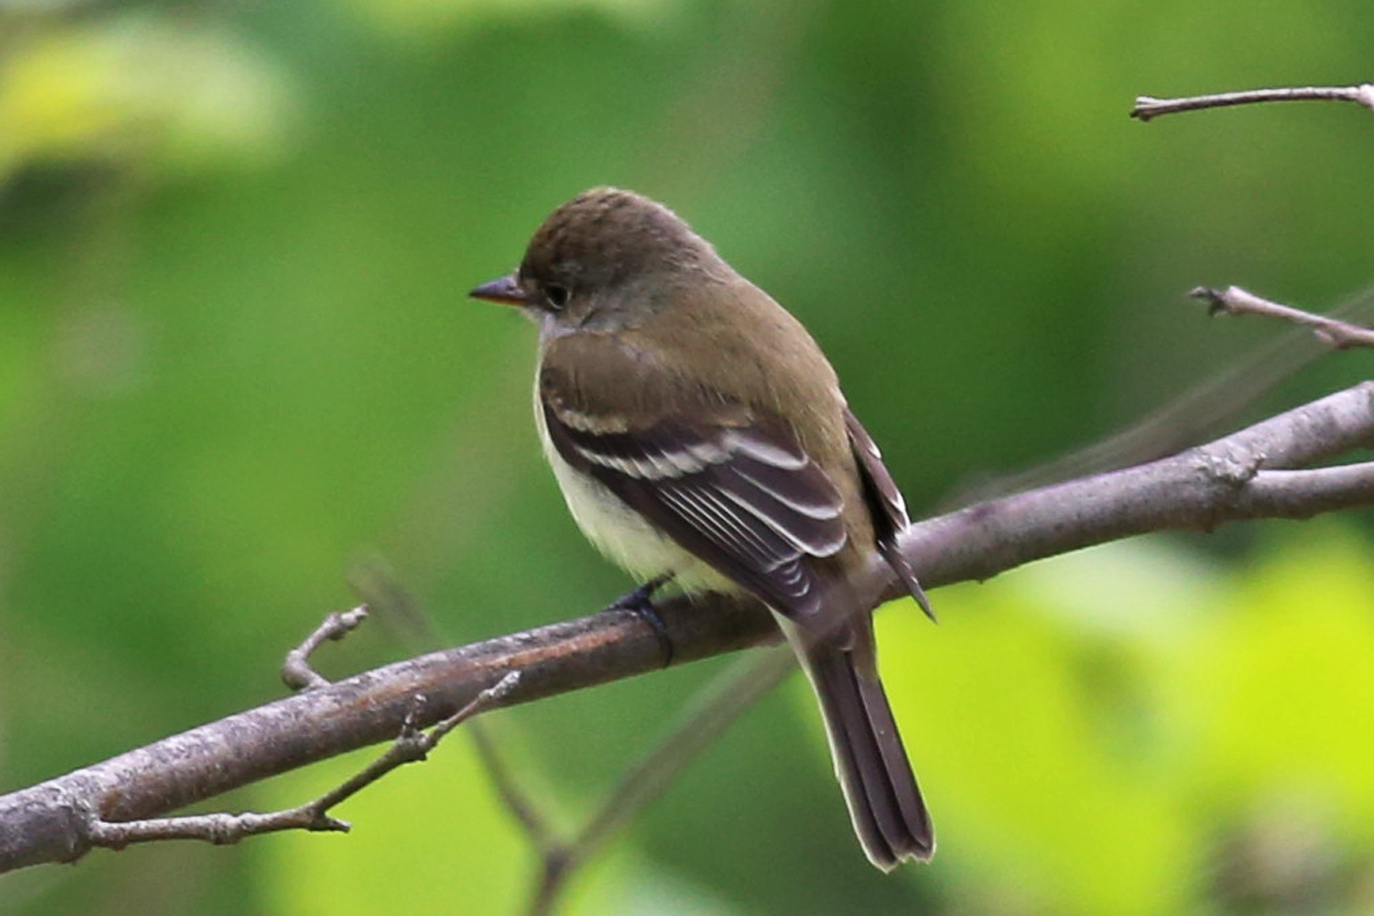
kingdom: Animalia
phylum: Chordata
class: Aves
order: Passeriformes
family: Tyrannidae
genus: Empidonax
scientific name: Empidonax traillii
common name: Willow flycatcher
